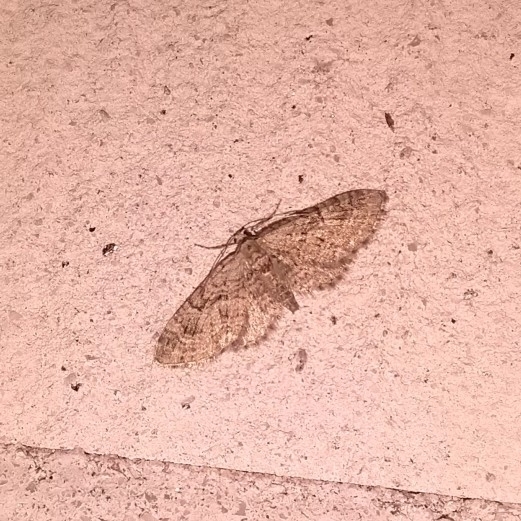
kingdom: Animalia
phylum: Arthropoda
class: Insecta
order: Lepidoptera
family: Geometridae
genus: Eupithecia
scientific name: Eupithecia pusillata
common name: Juniper pug
